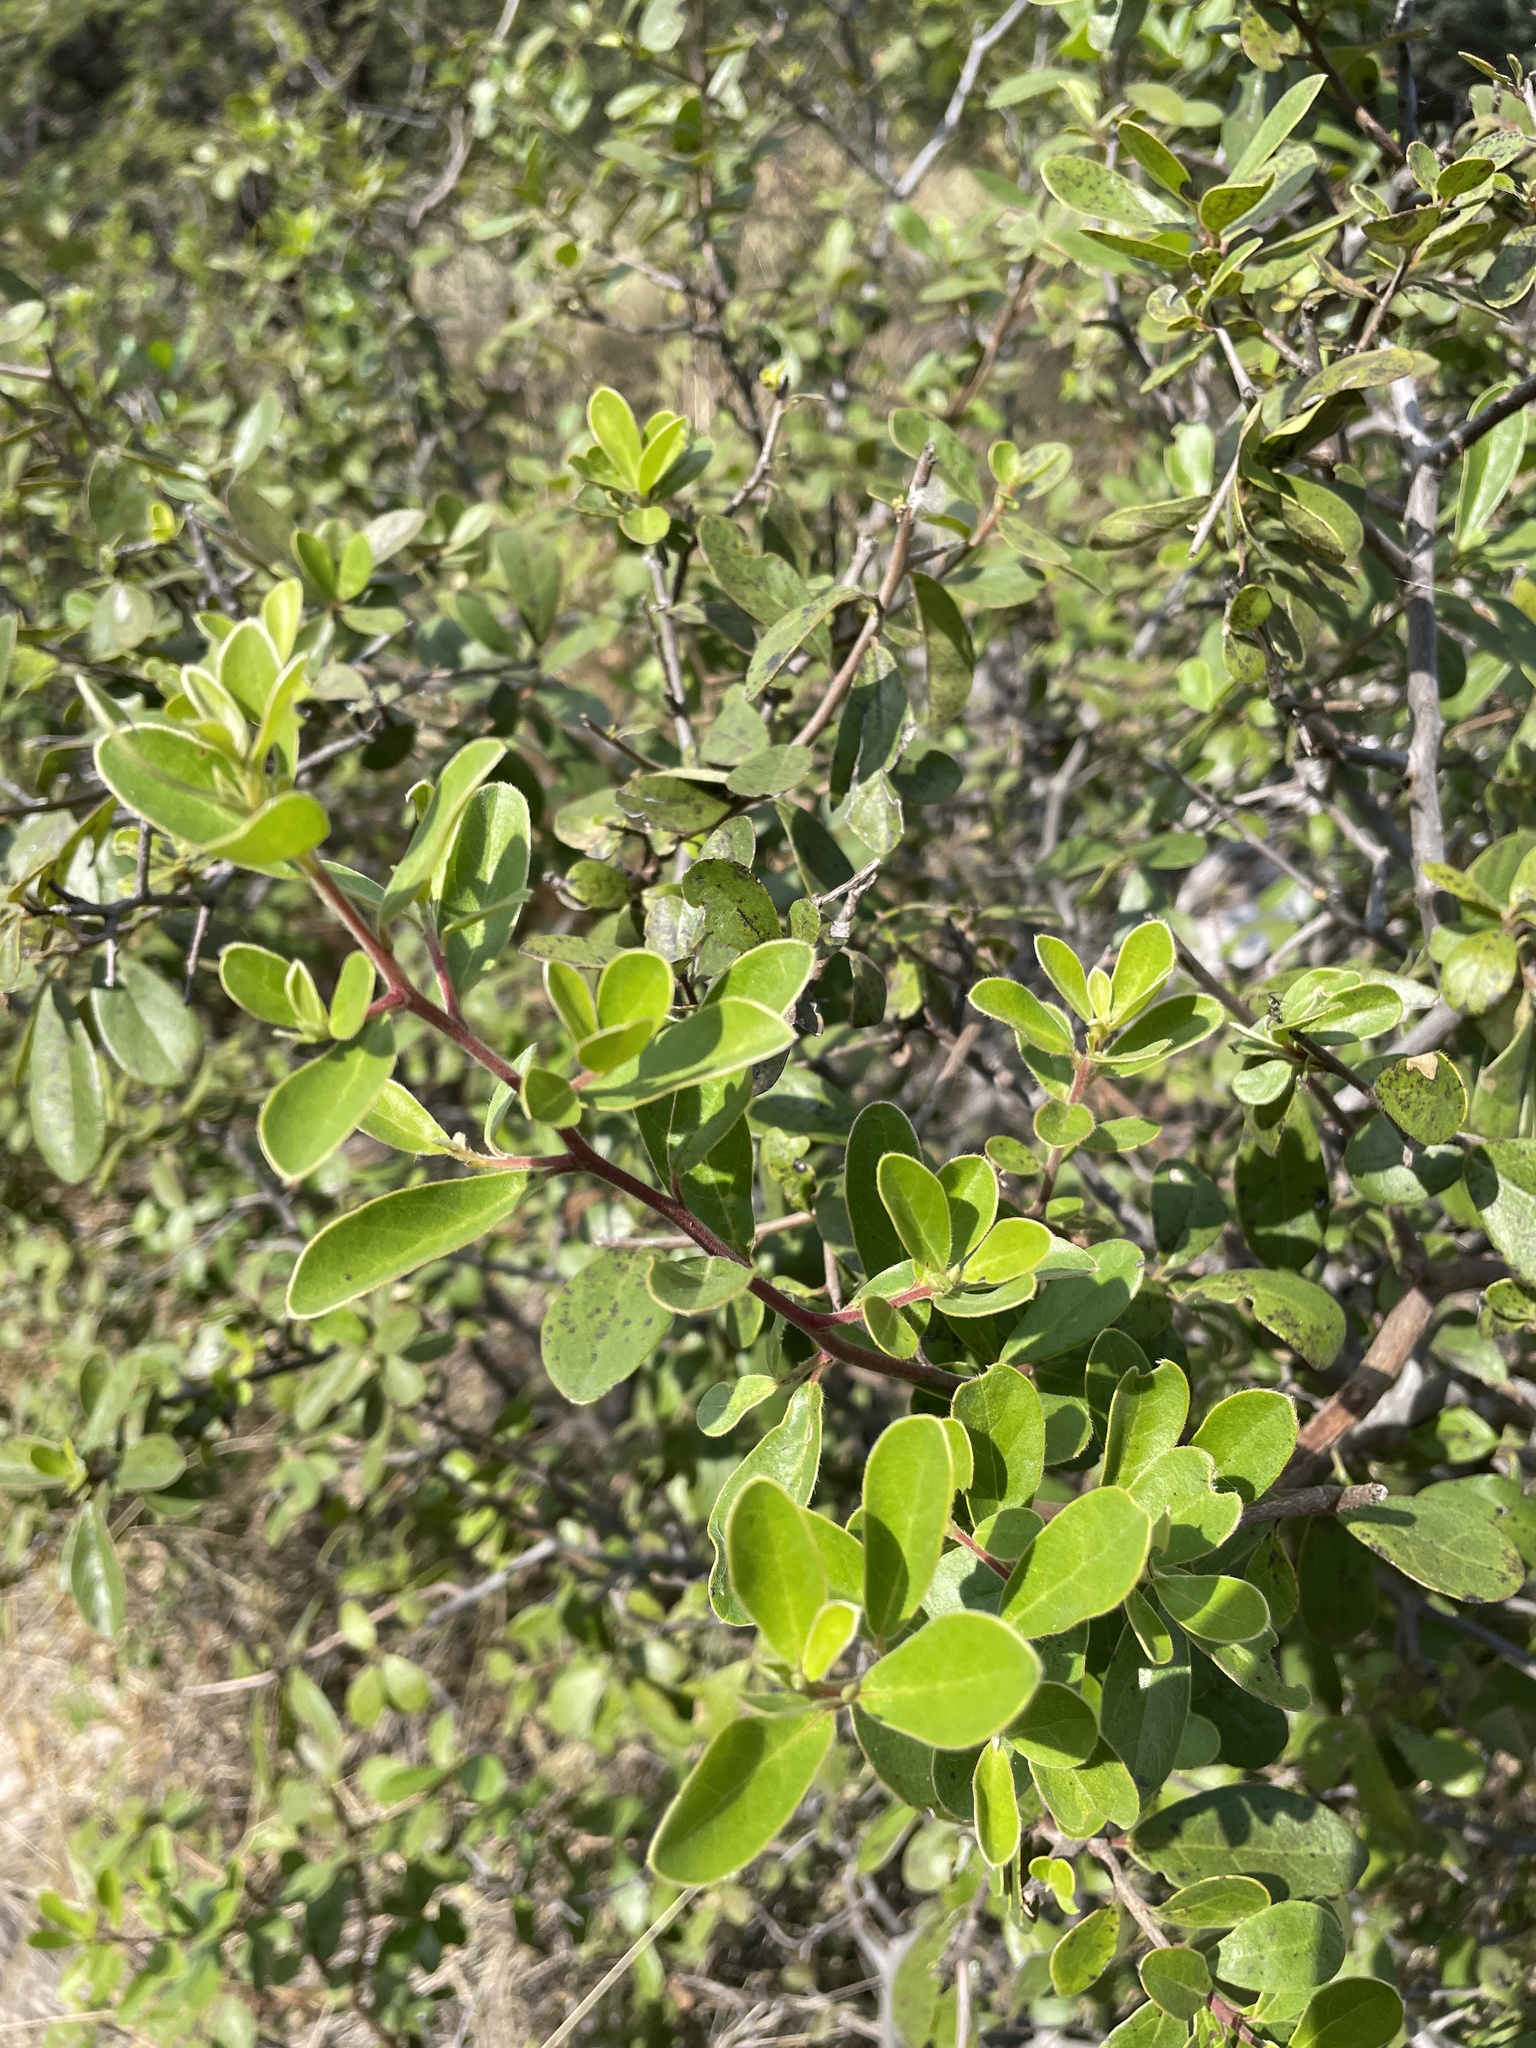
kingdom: Plantae
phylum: Tracheophyta
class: Magnoliopsida
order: Ericales
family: Ebenaceae
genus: Diospyros
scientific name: Diospyros lycioides
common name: Red star apple
